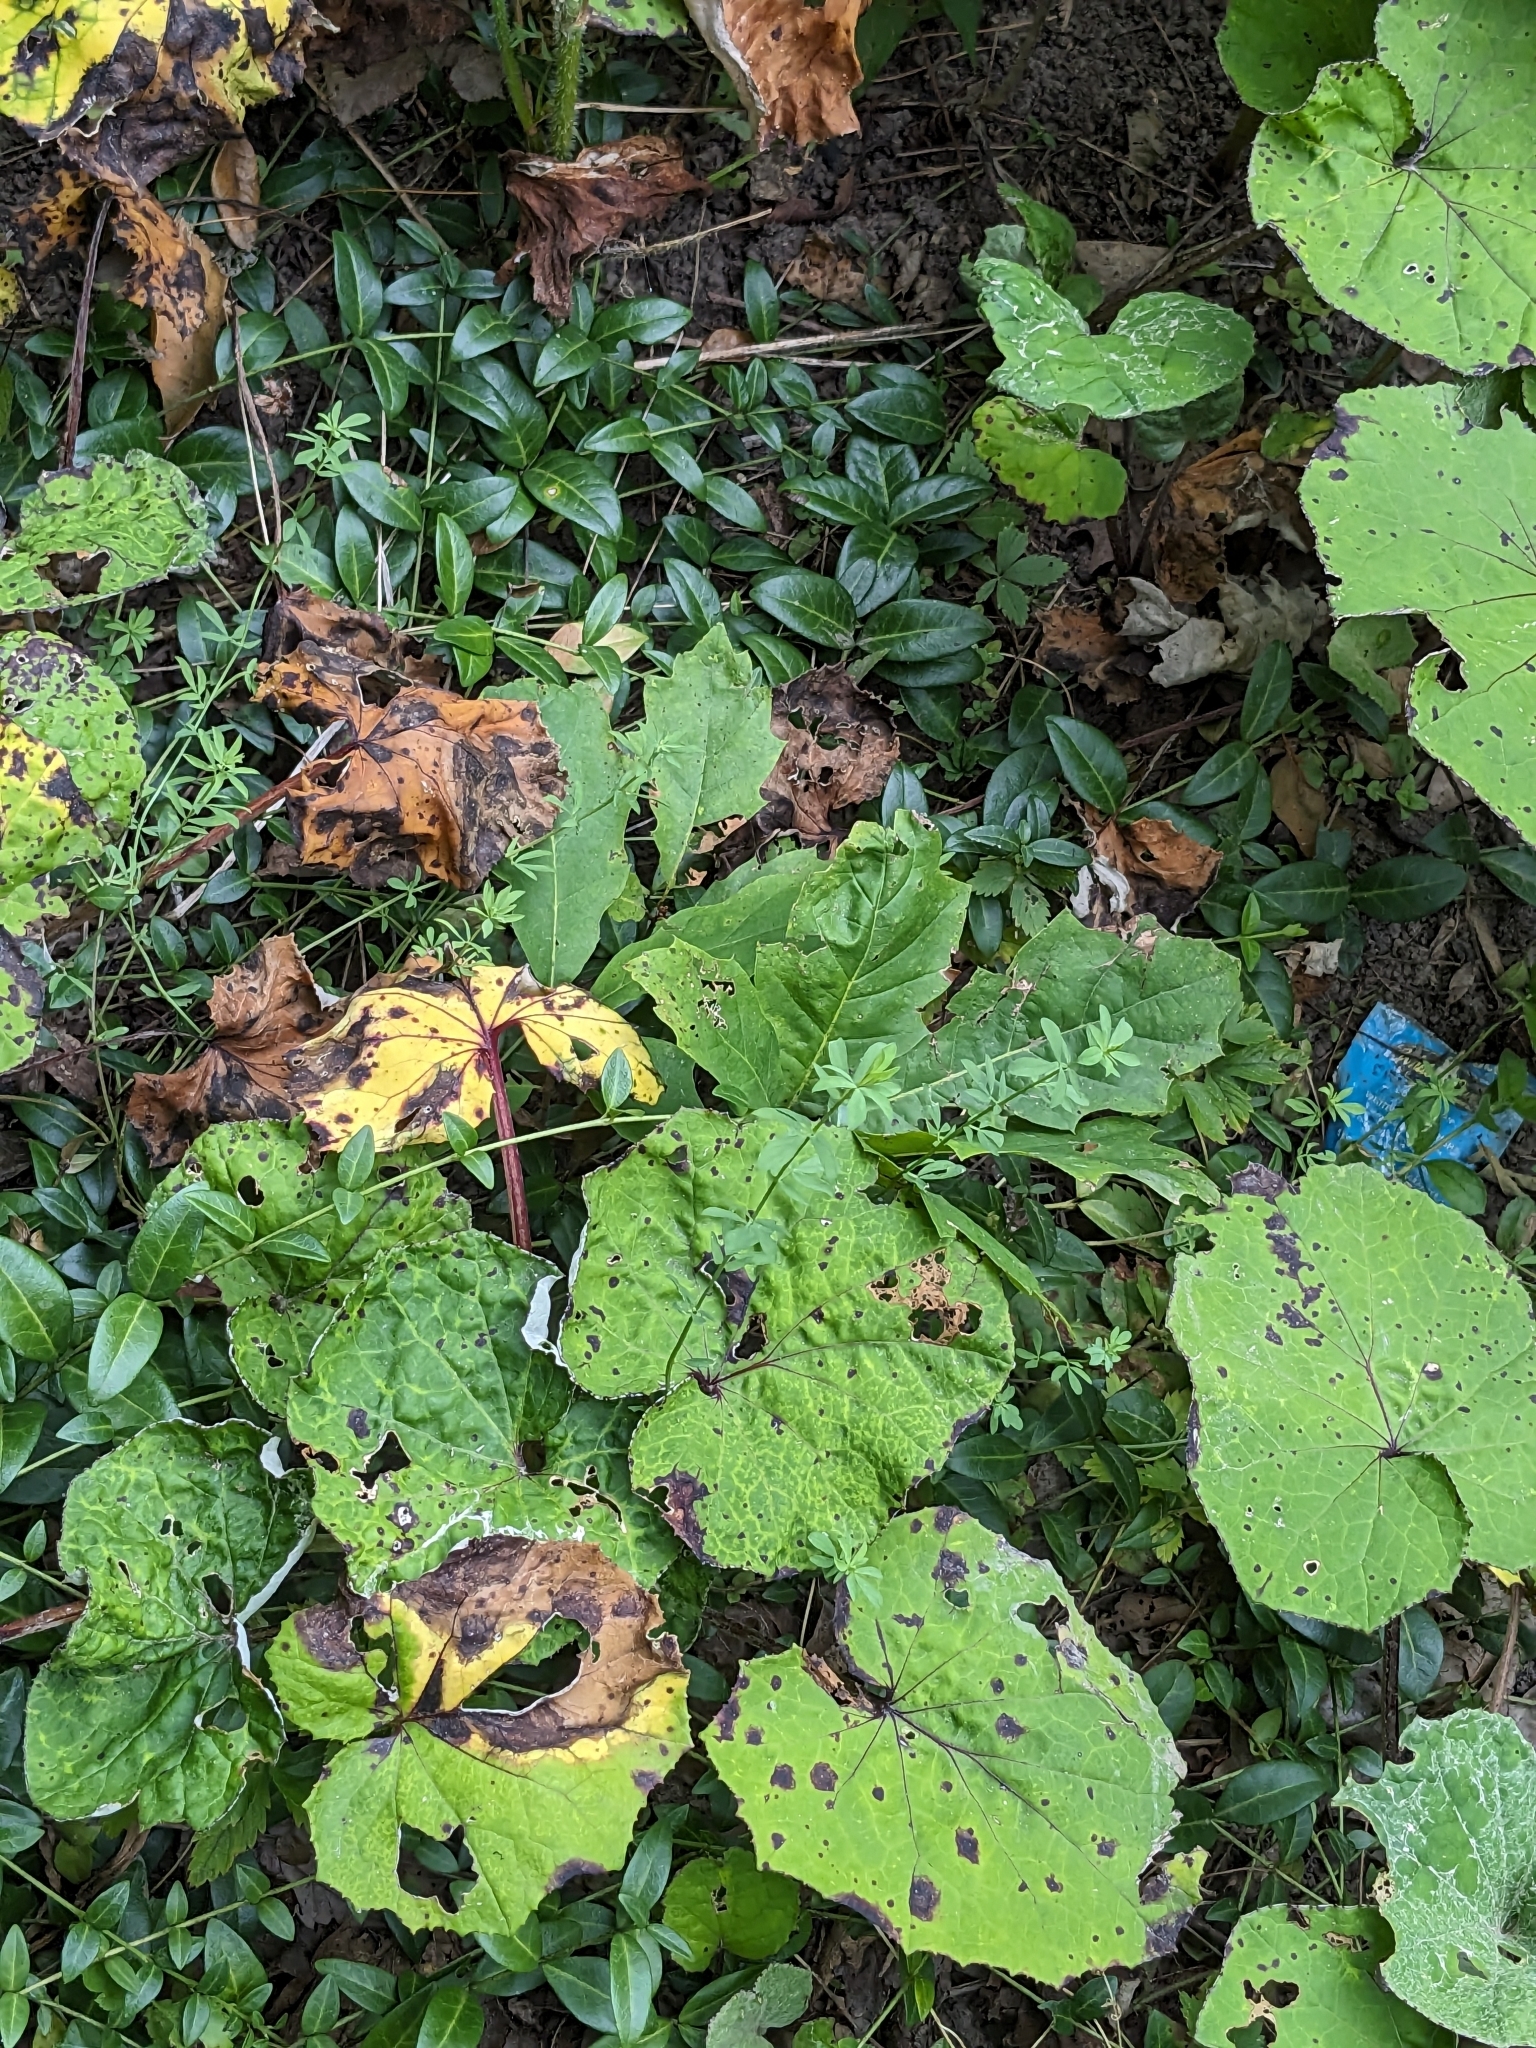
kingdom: Plantae
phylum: Tracheophyta
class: Magnoliopsida
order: Asterales
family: Asteraceae
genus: Tussilago
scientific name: Tussilago farfara
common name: Coltsfoot
